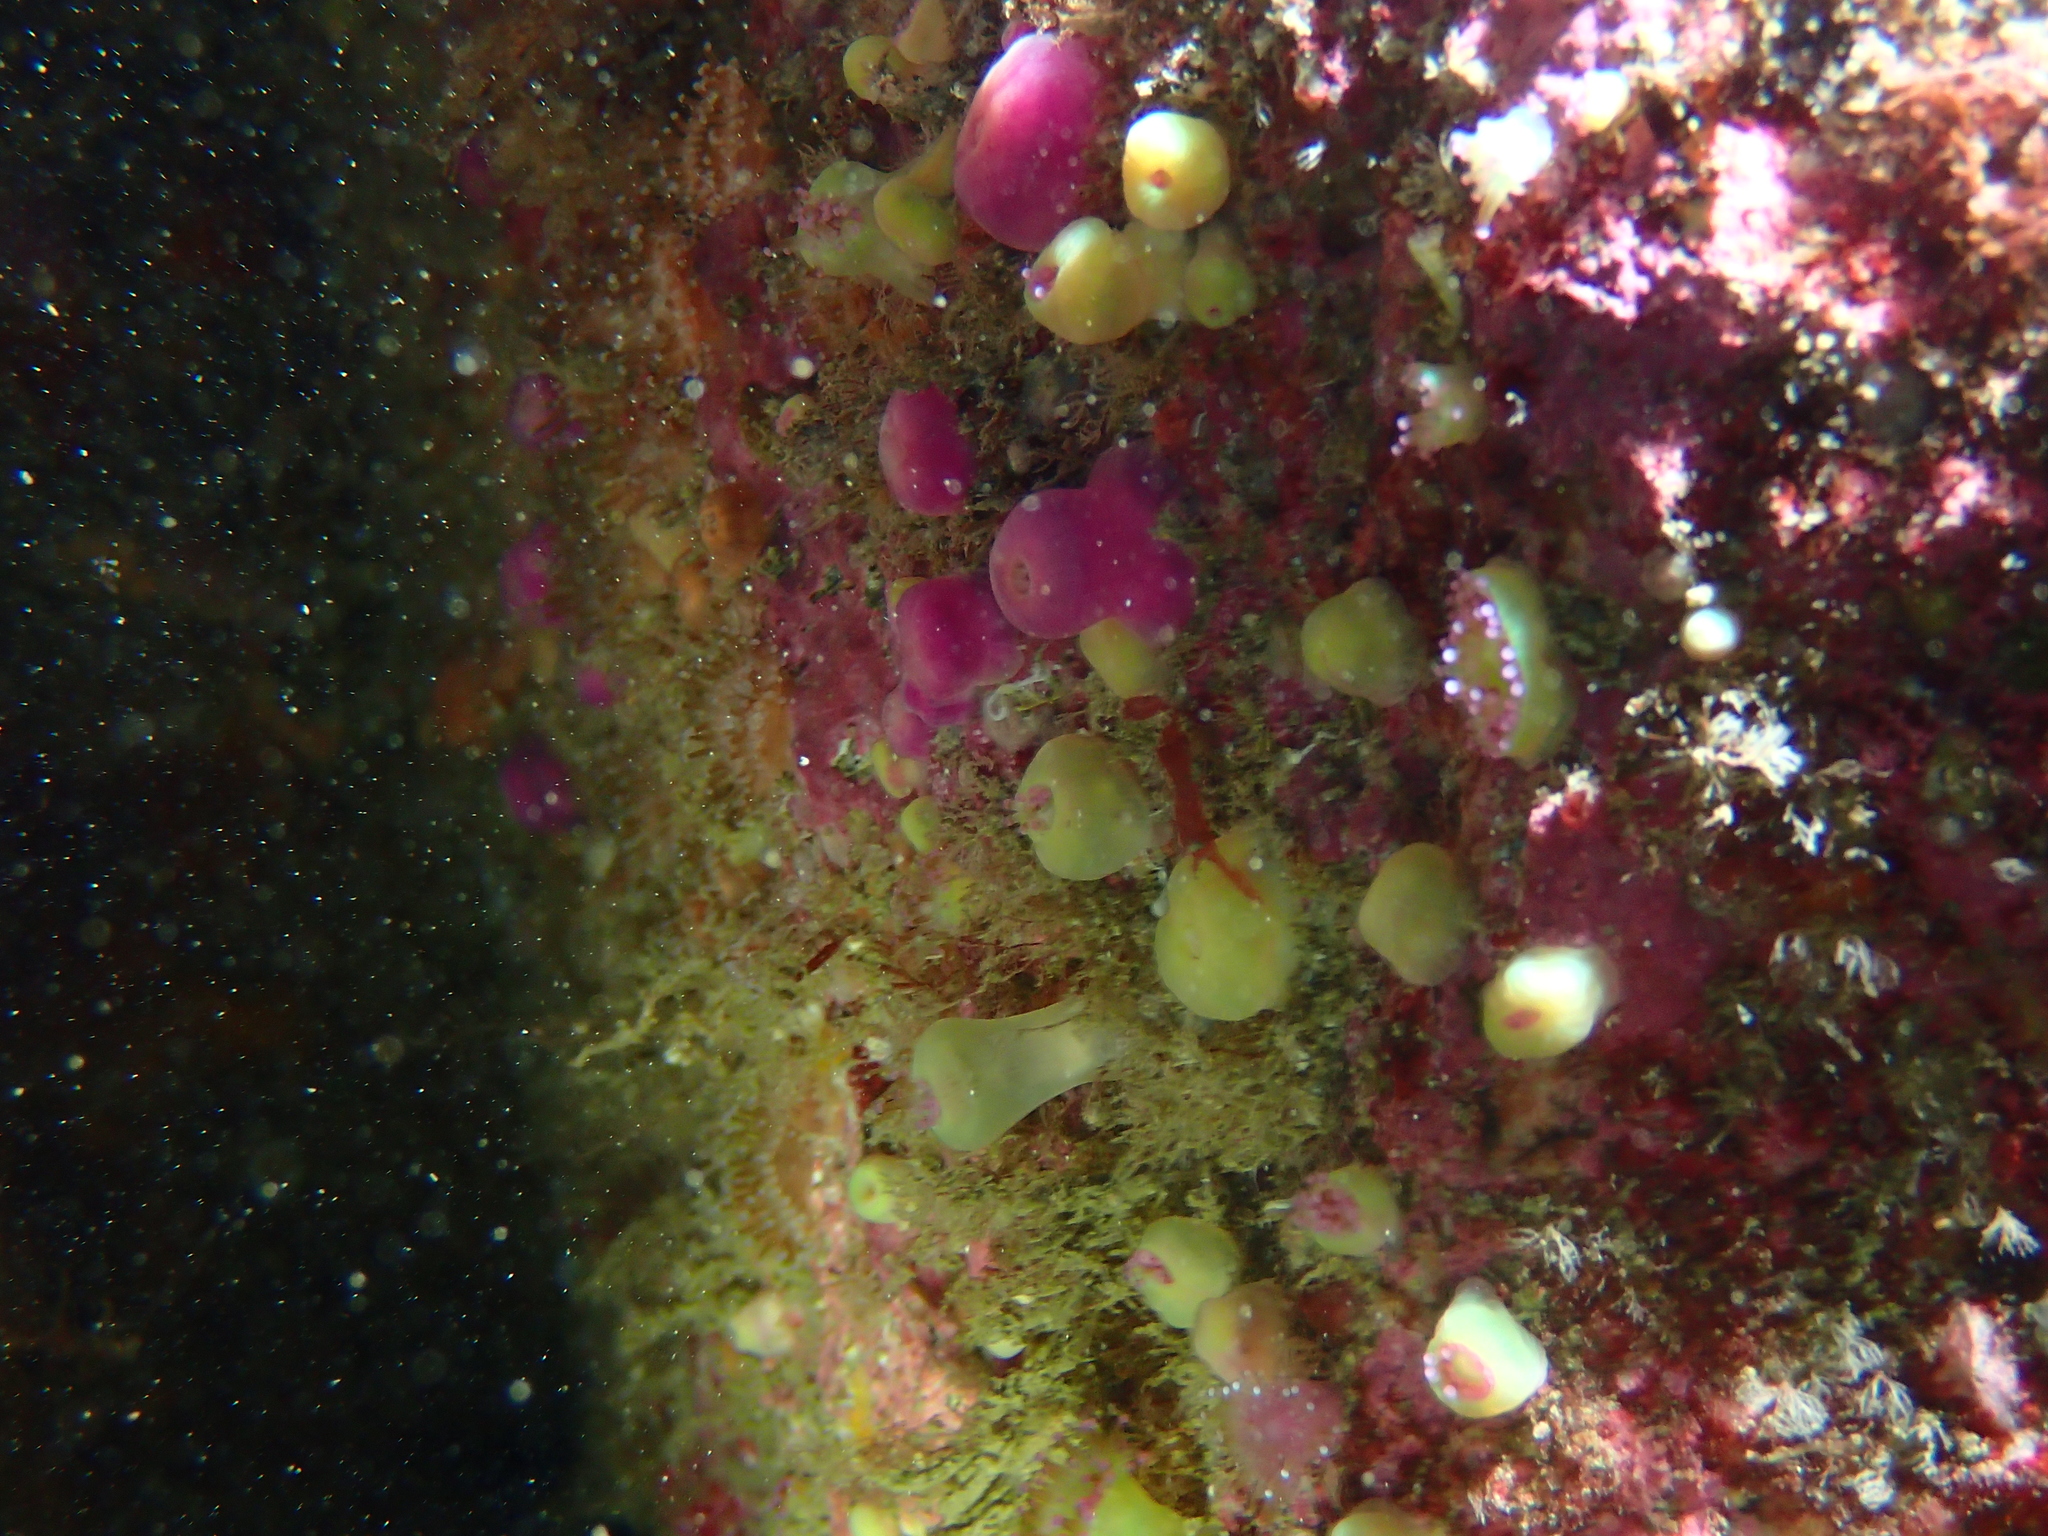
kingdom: Animalia
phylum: Cnidaria
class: Anthozoa
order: Corallimorpharia
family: Corallimorphidae
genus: Corynactis
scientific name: Corynactis viridis
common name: Jewel anemone
